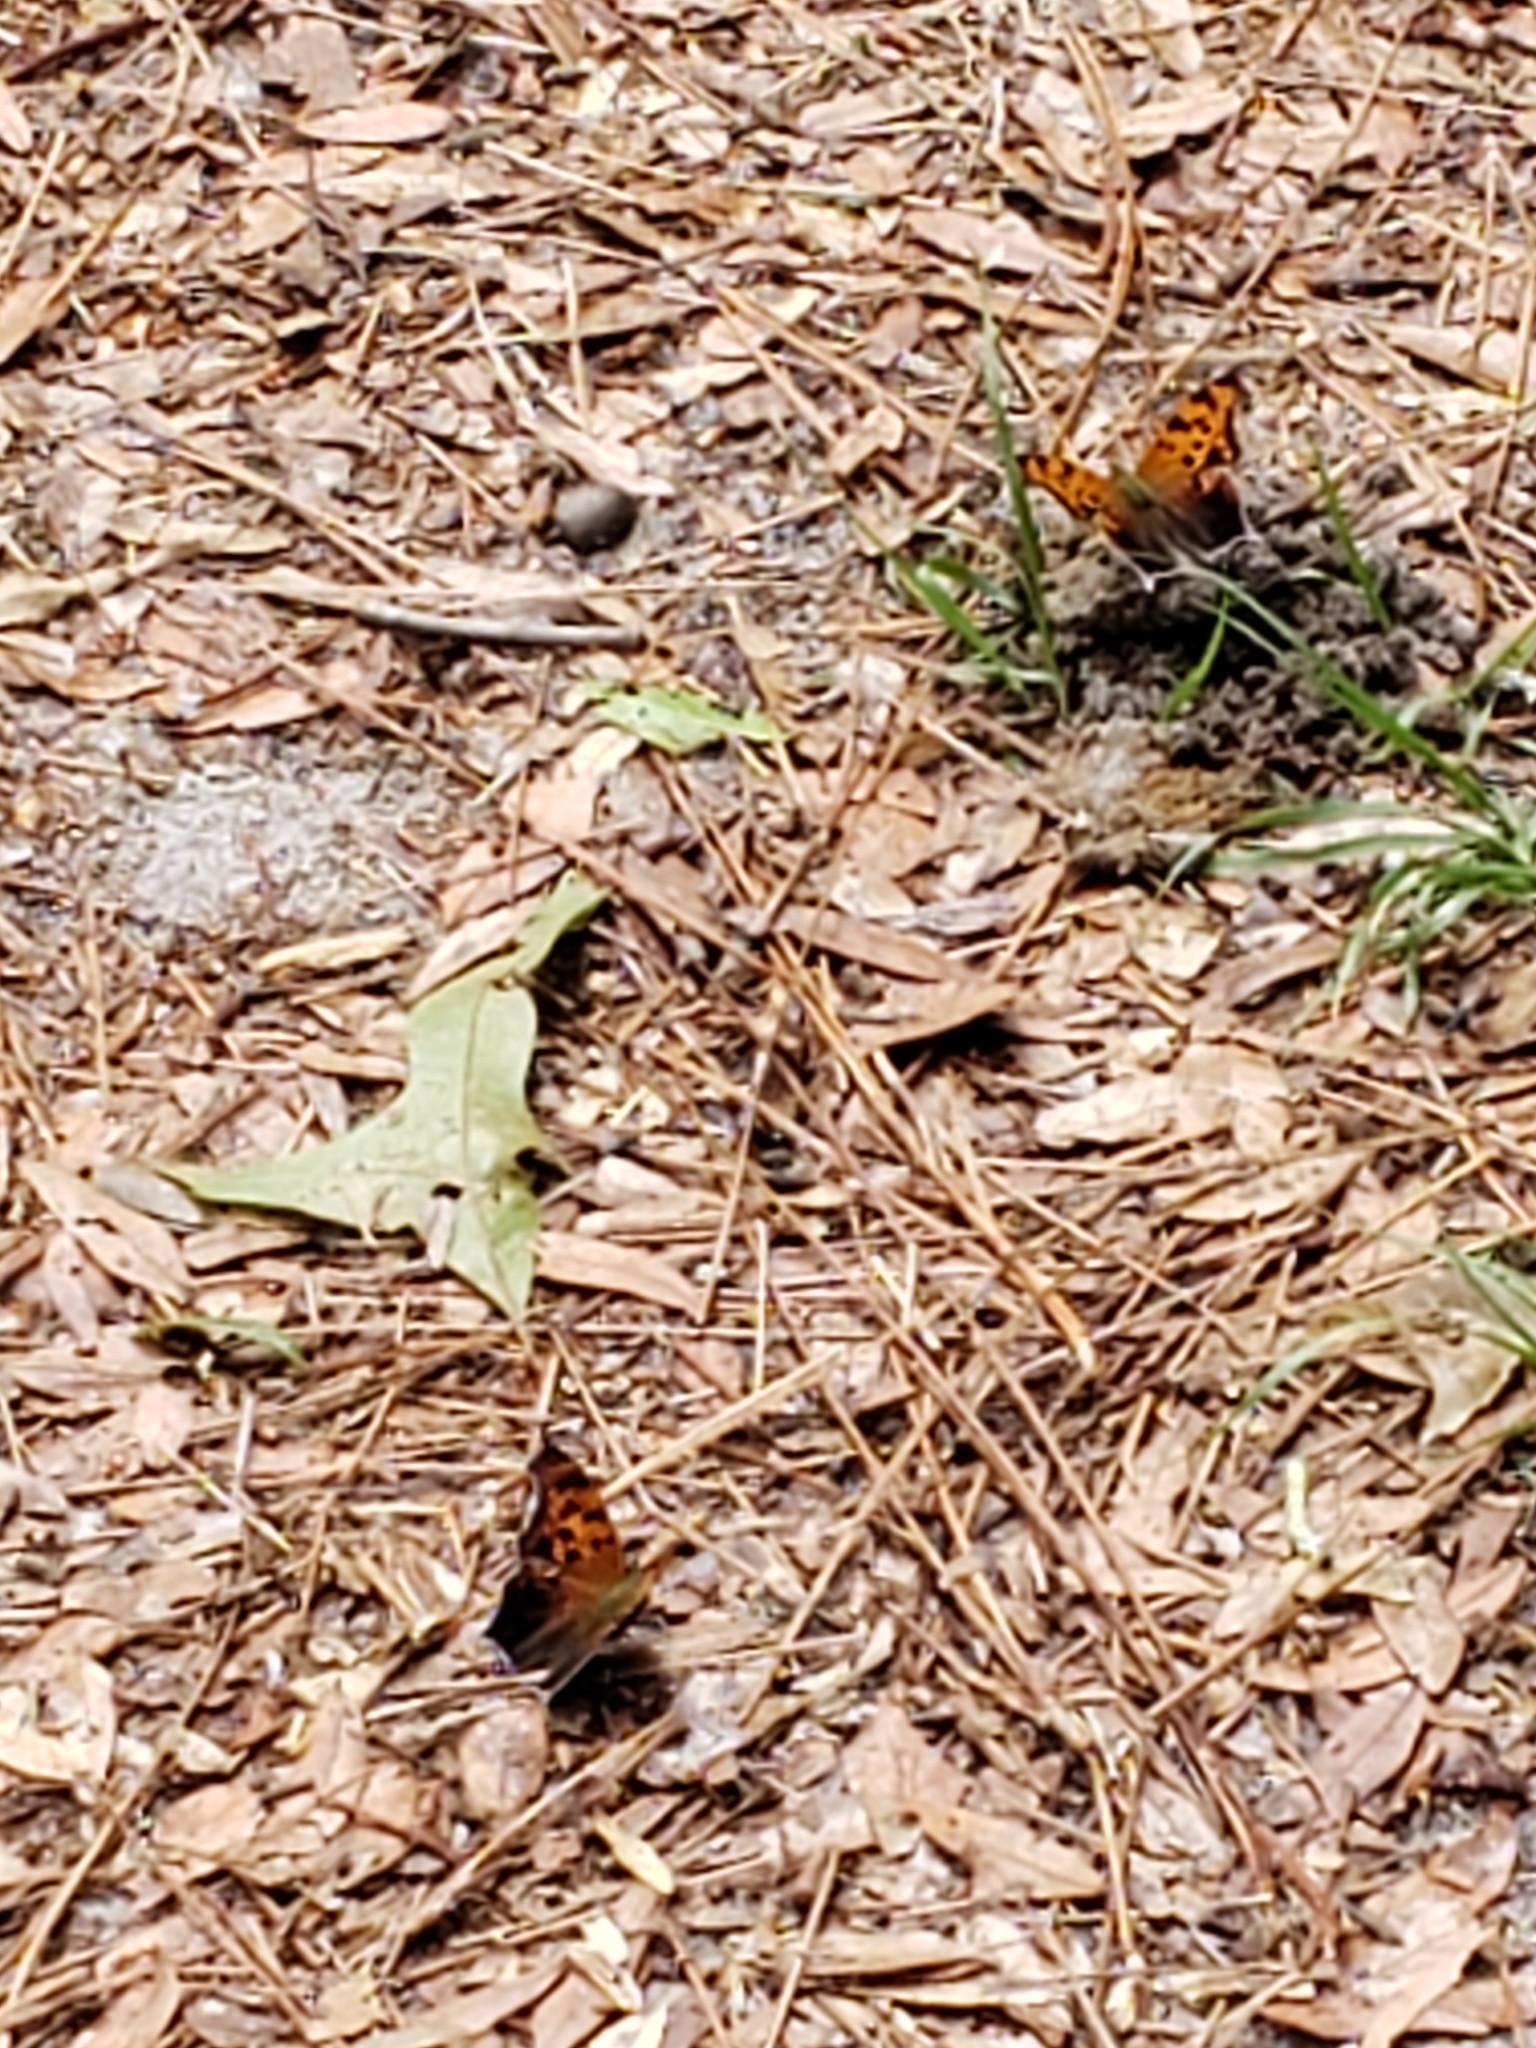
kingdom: Animalia
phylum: Arthropoda
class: Insecta
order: Lepidoptera
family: Nymphalidae
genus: Polygonia
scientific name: Polygonia interrogationis
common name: Question mark
